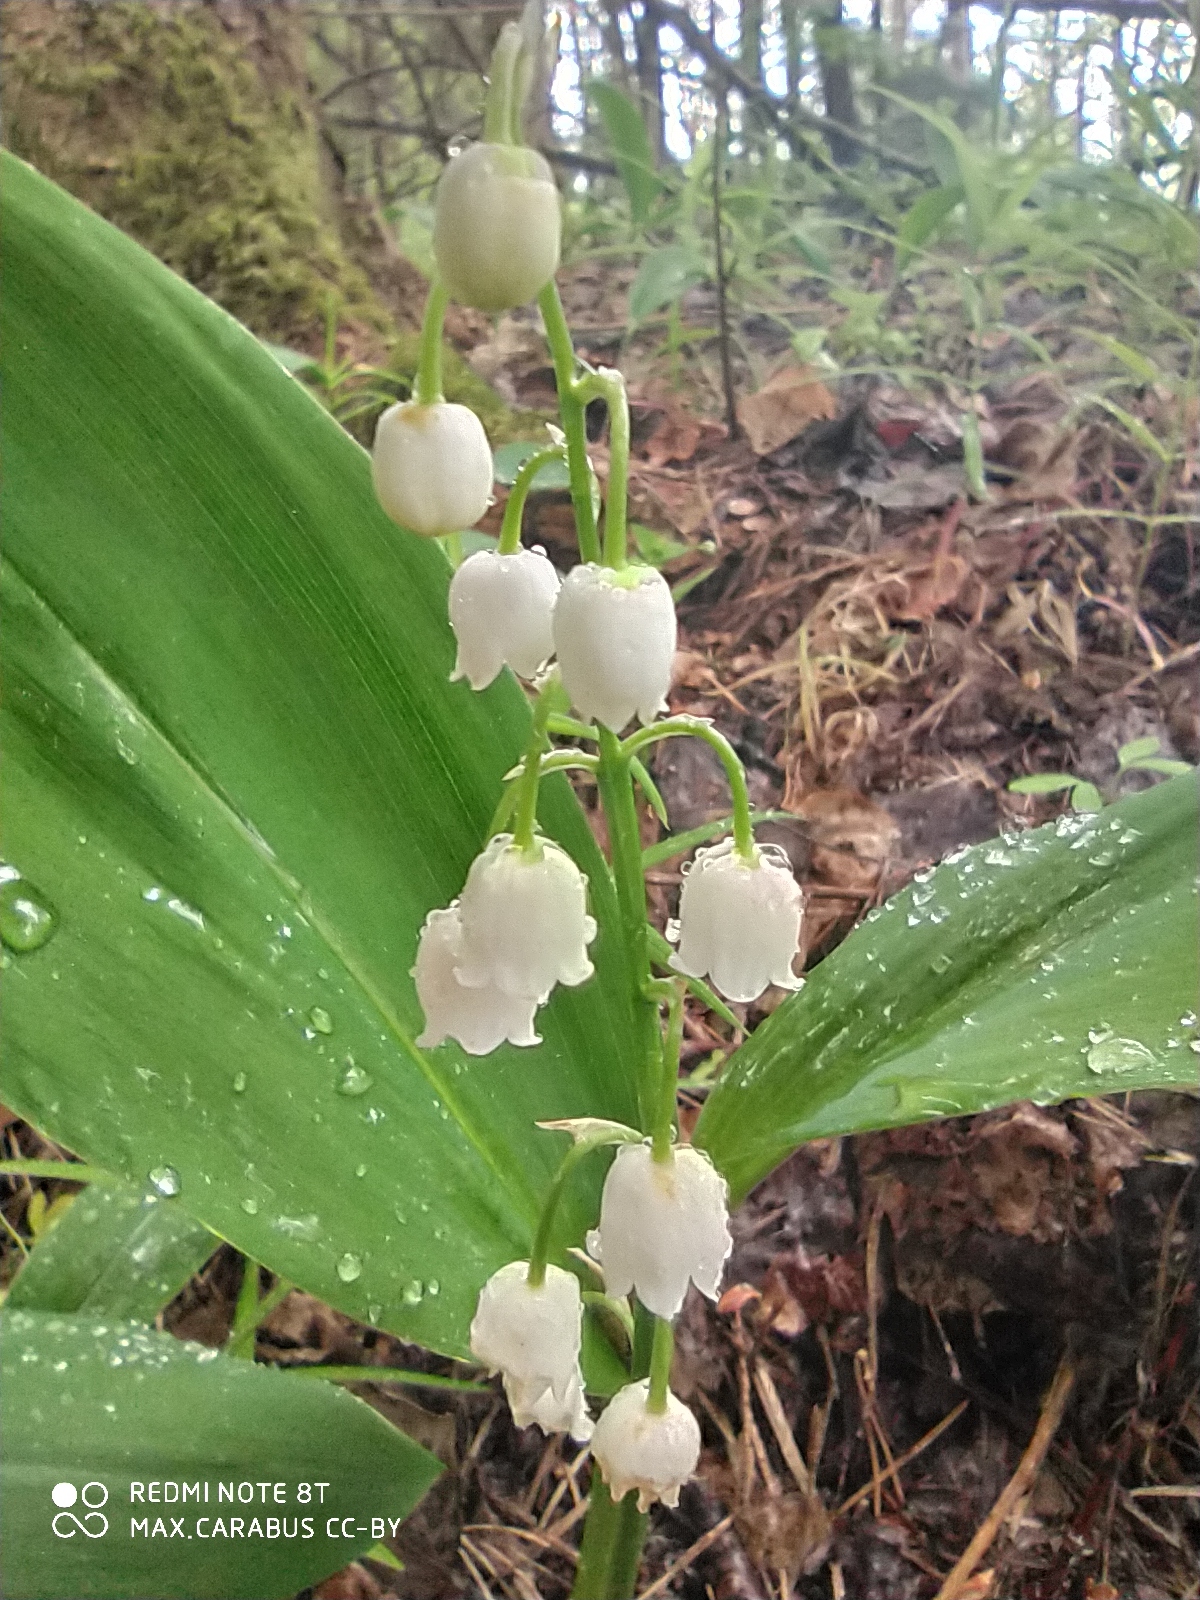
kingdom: Plantae
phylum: Tracheophyta
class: Liliopsida
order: Asparagales
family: Asparagaceae
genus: Convallaria
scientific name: Convallaria majalis
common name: Lily-of-the-valley
